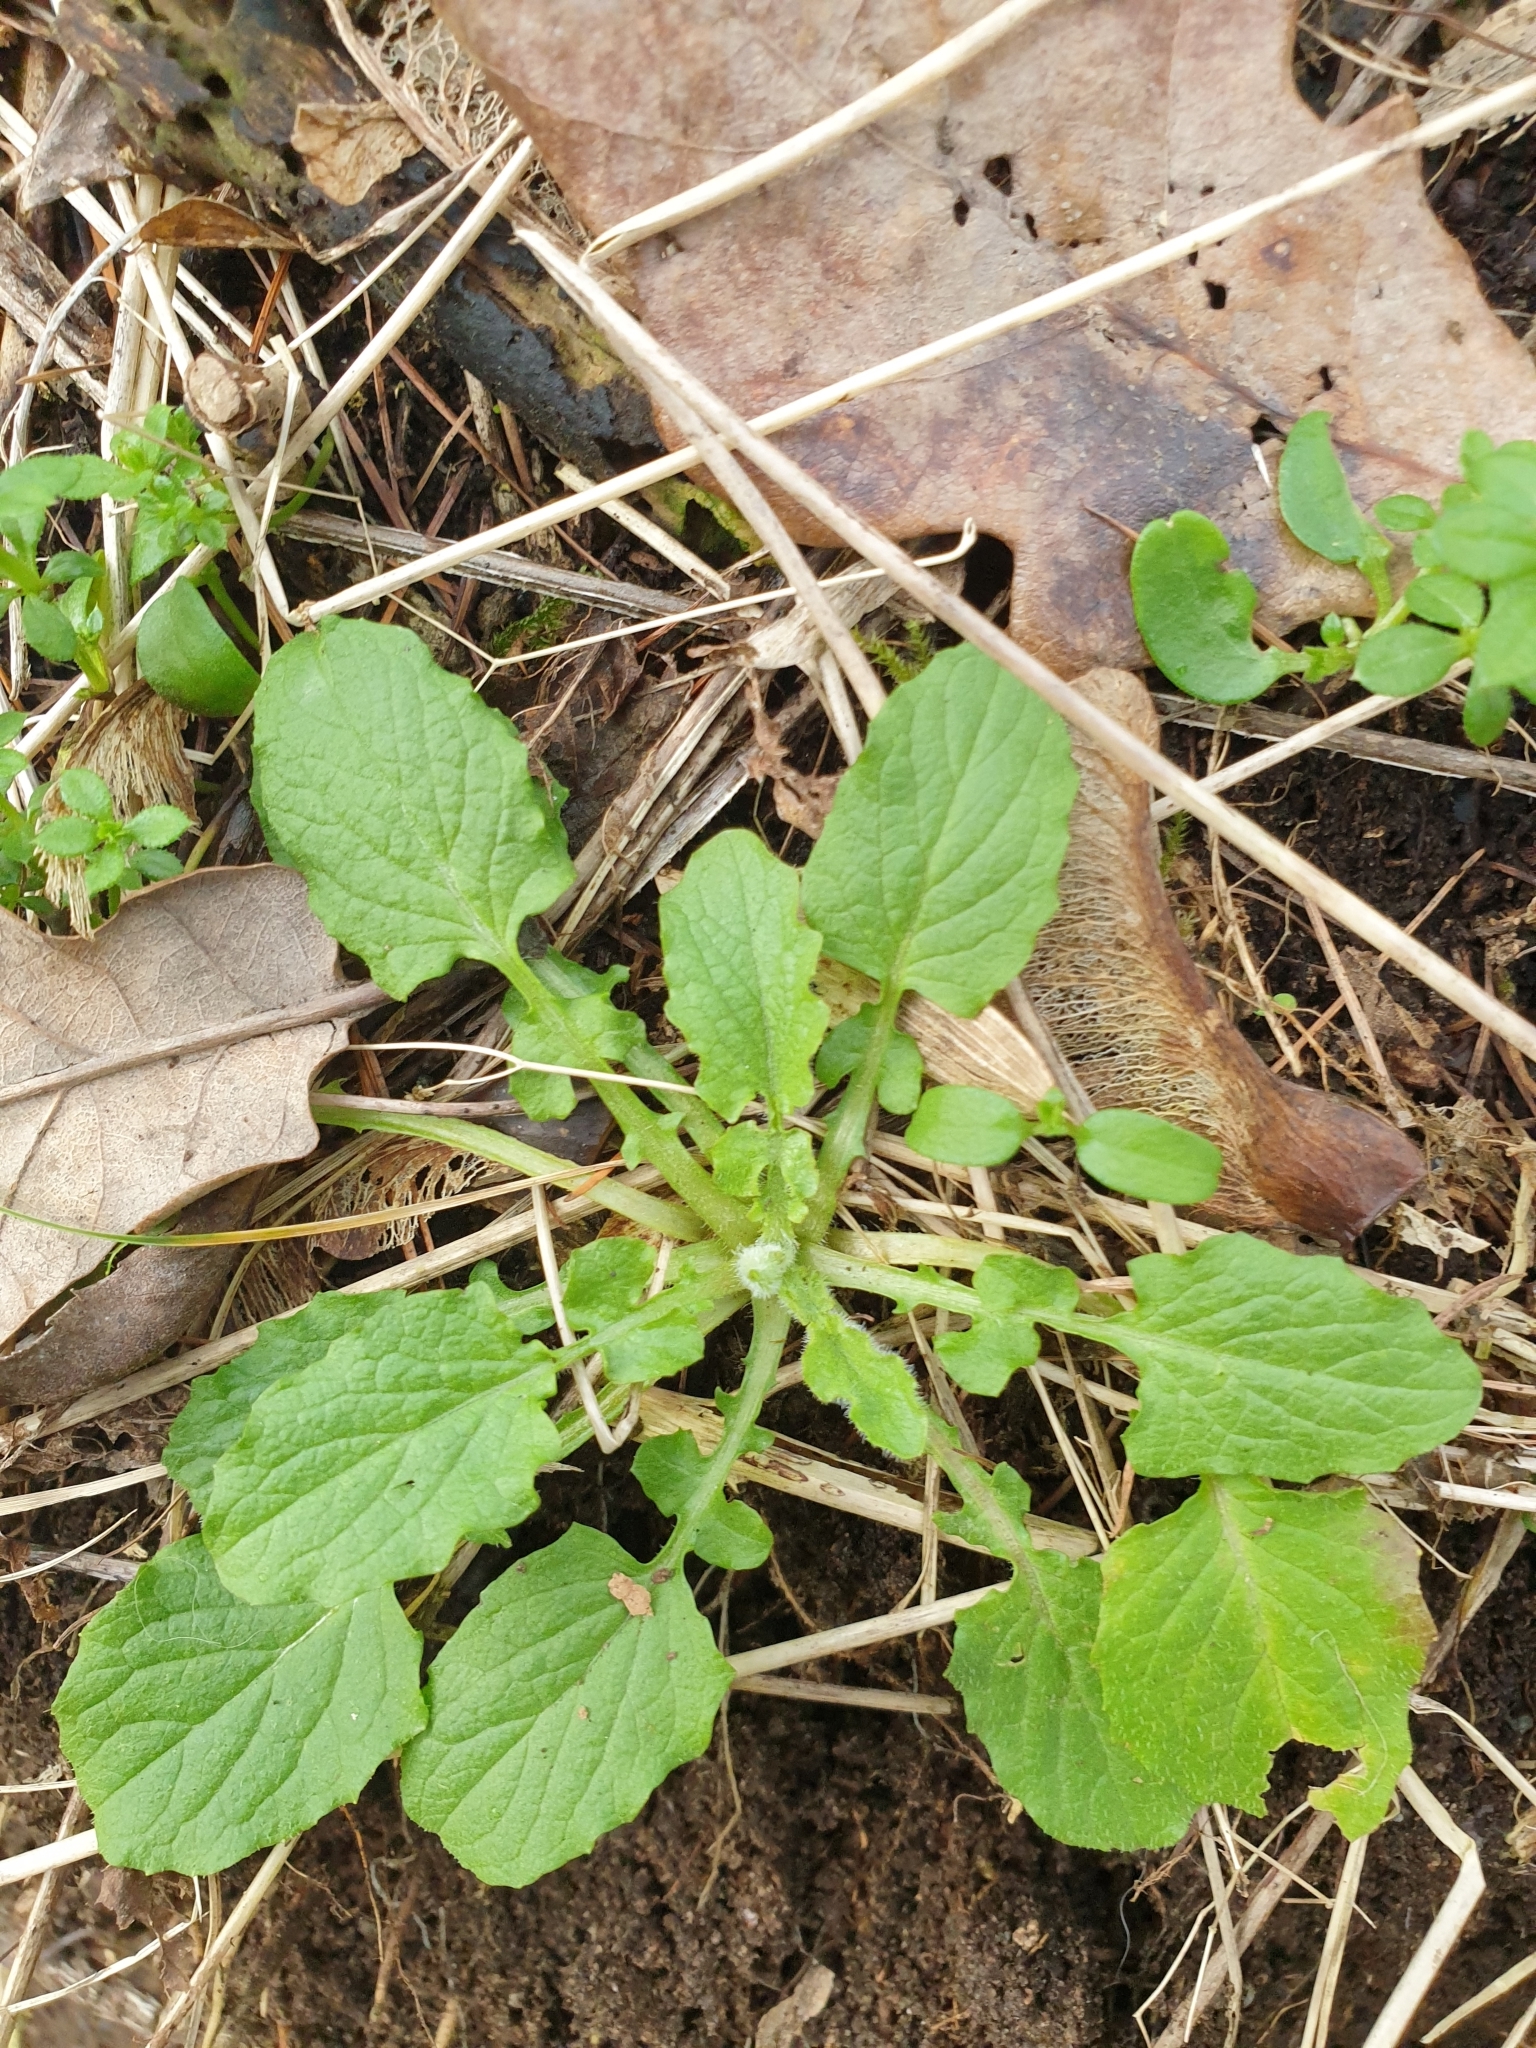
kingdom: Plantae
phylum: Tracheophyta
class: Magnoliopsida
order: Asterales
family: Asteraceae
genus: Lapsana
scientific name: Lapsana communis
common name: Nipplewort
